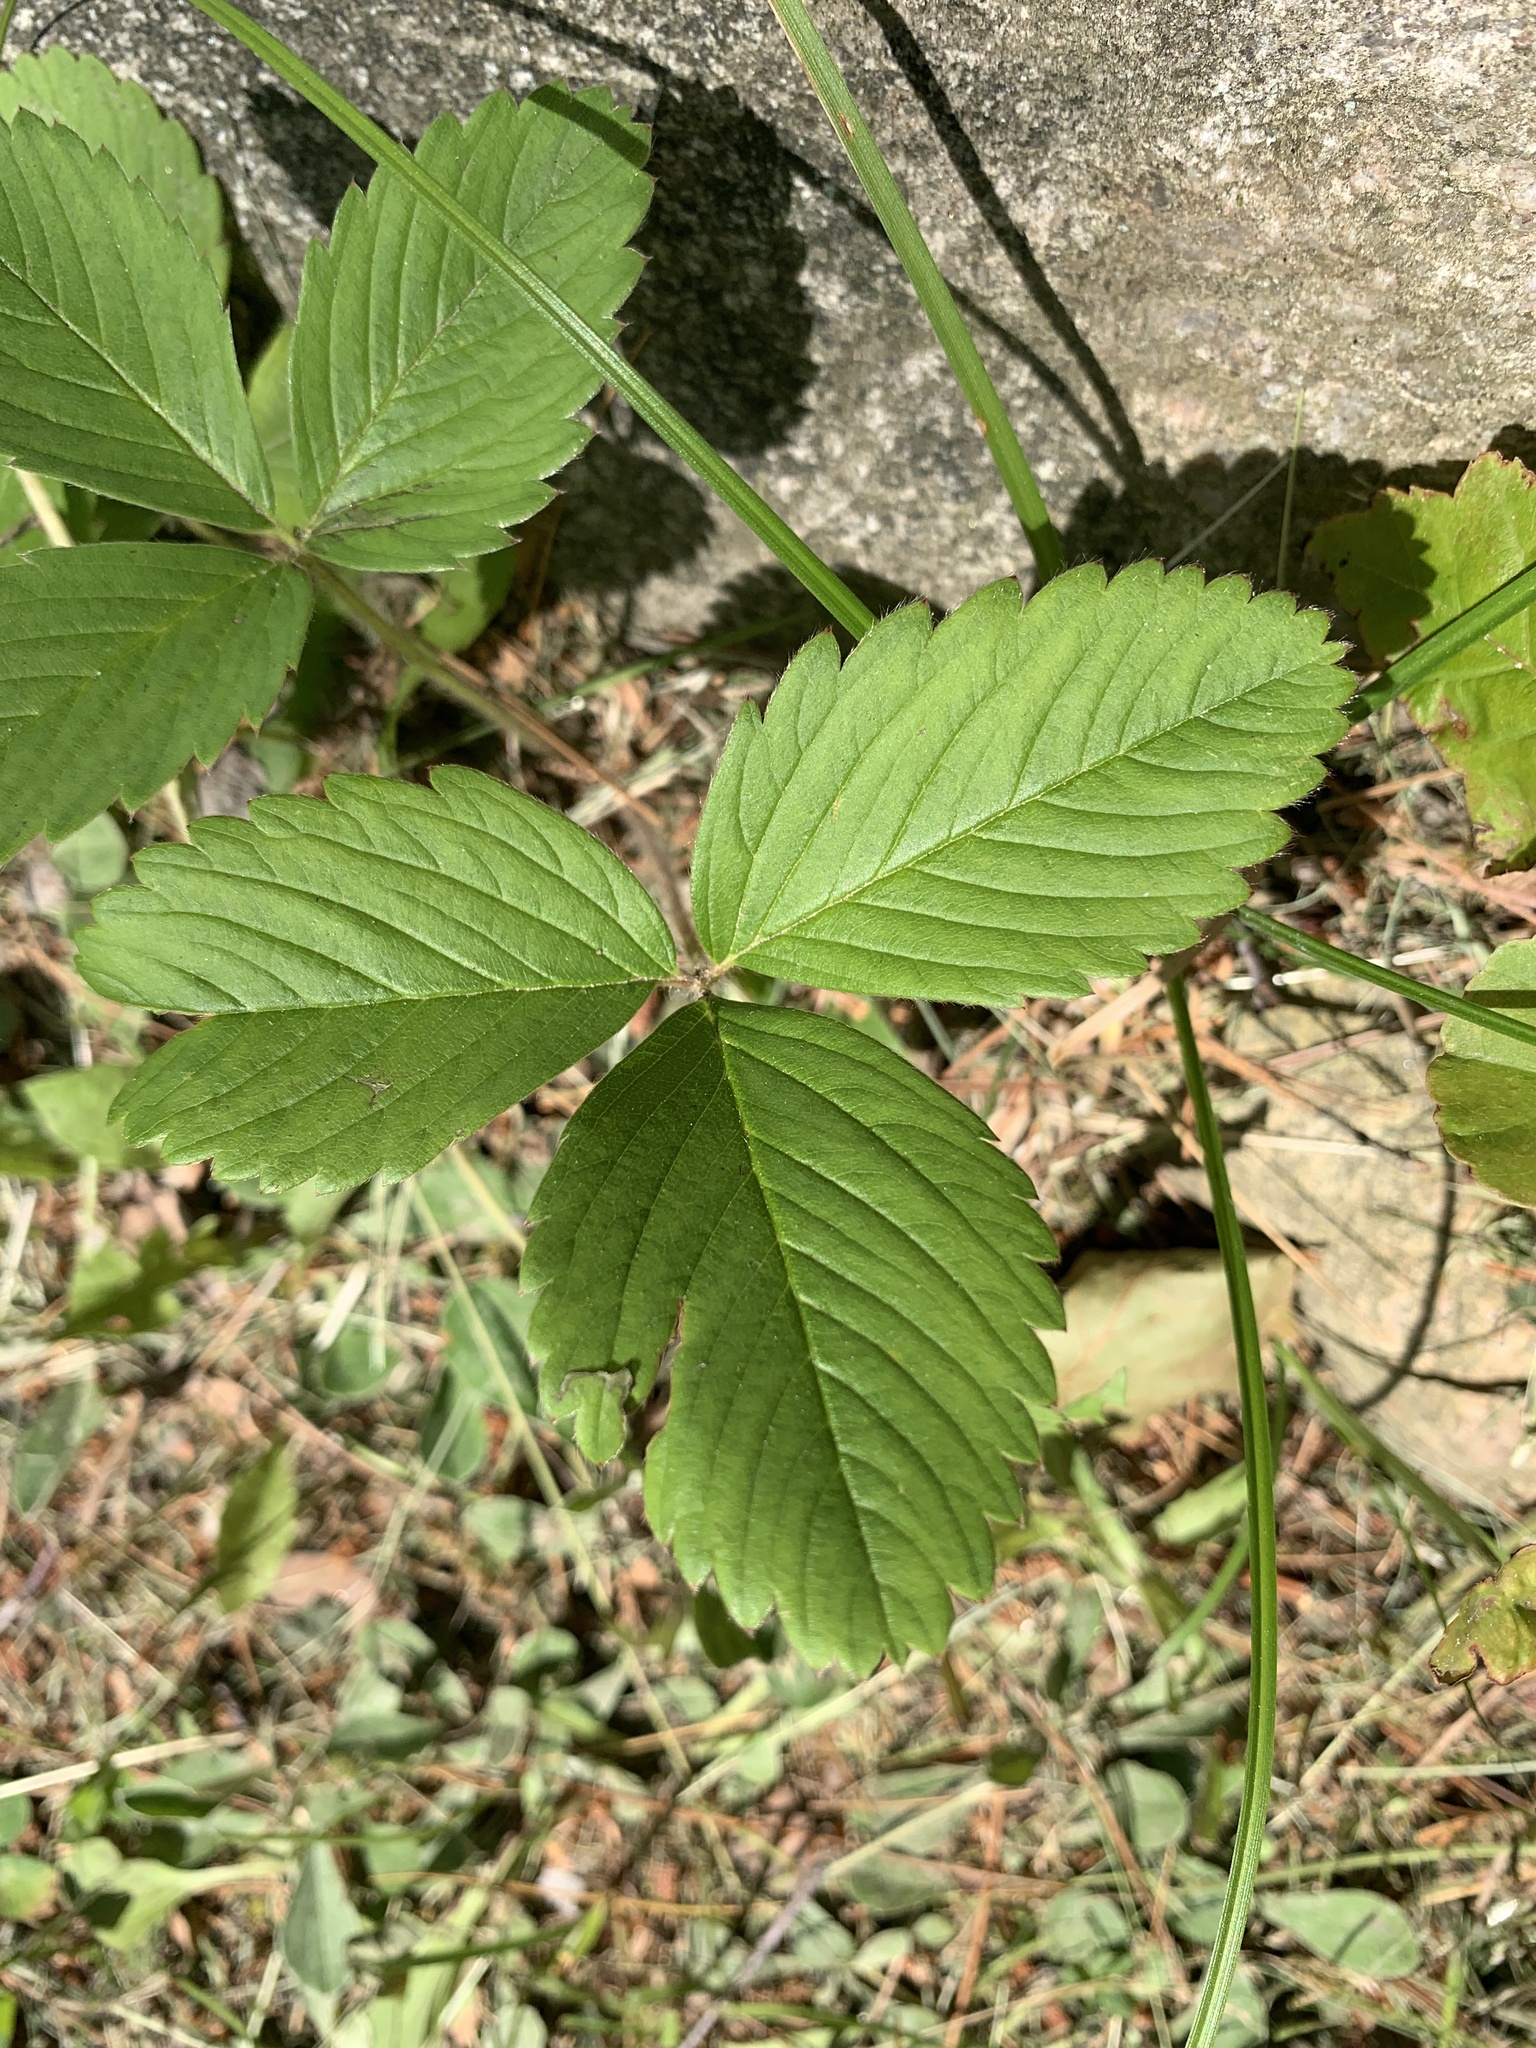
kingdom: Plantae
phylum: Tracheophyta
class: Magnoliopsida
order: Rosales
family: Rosaceae
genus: Fragaria
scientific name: Fragaria virginiana
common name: Thickleaved wild strawberry
